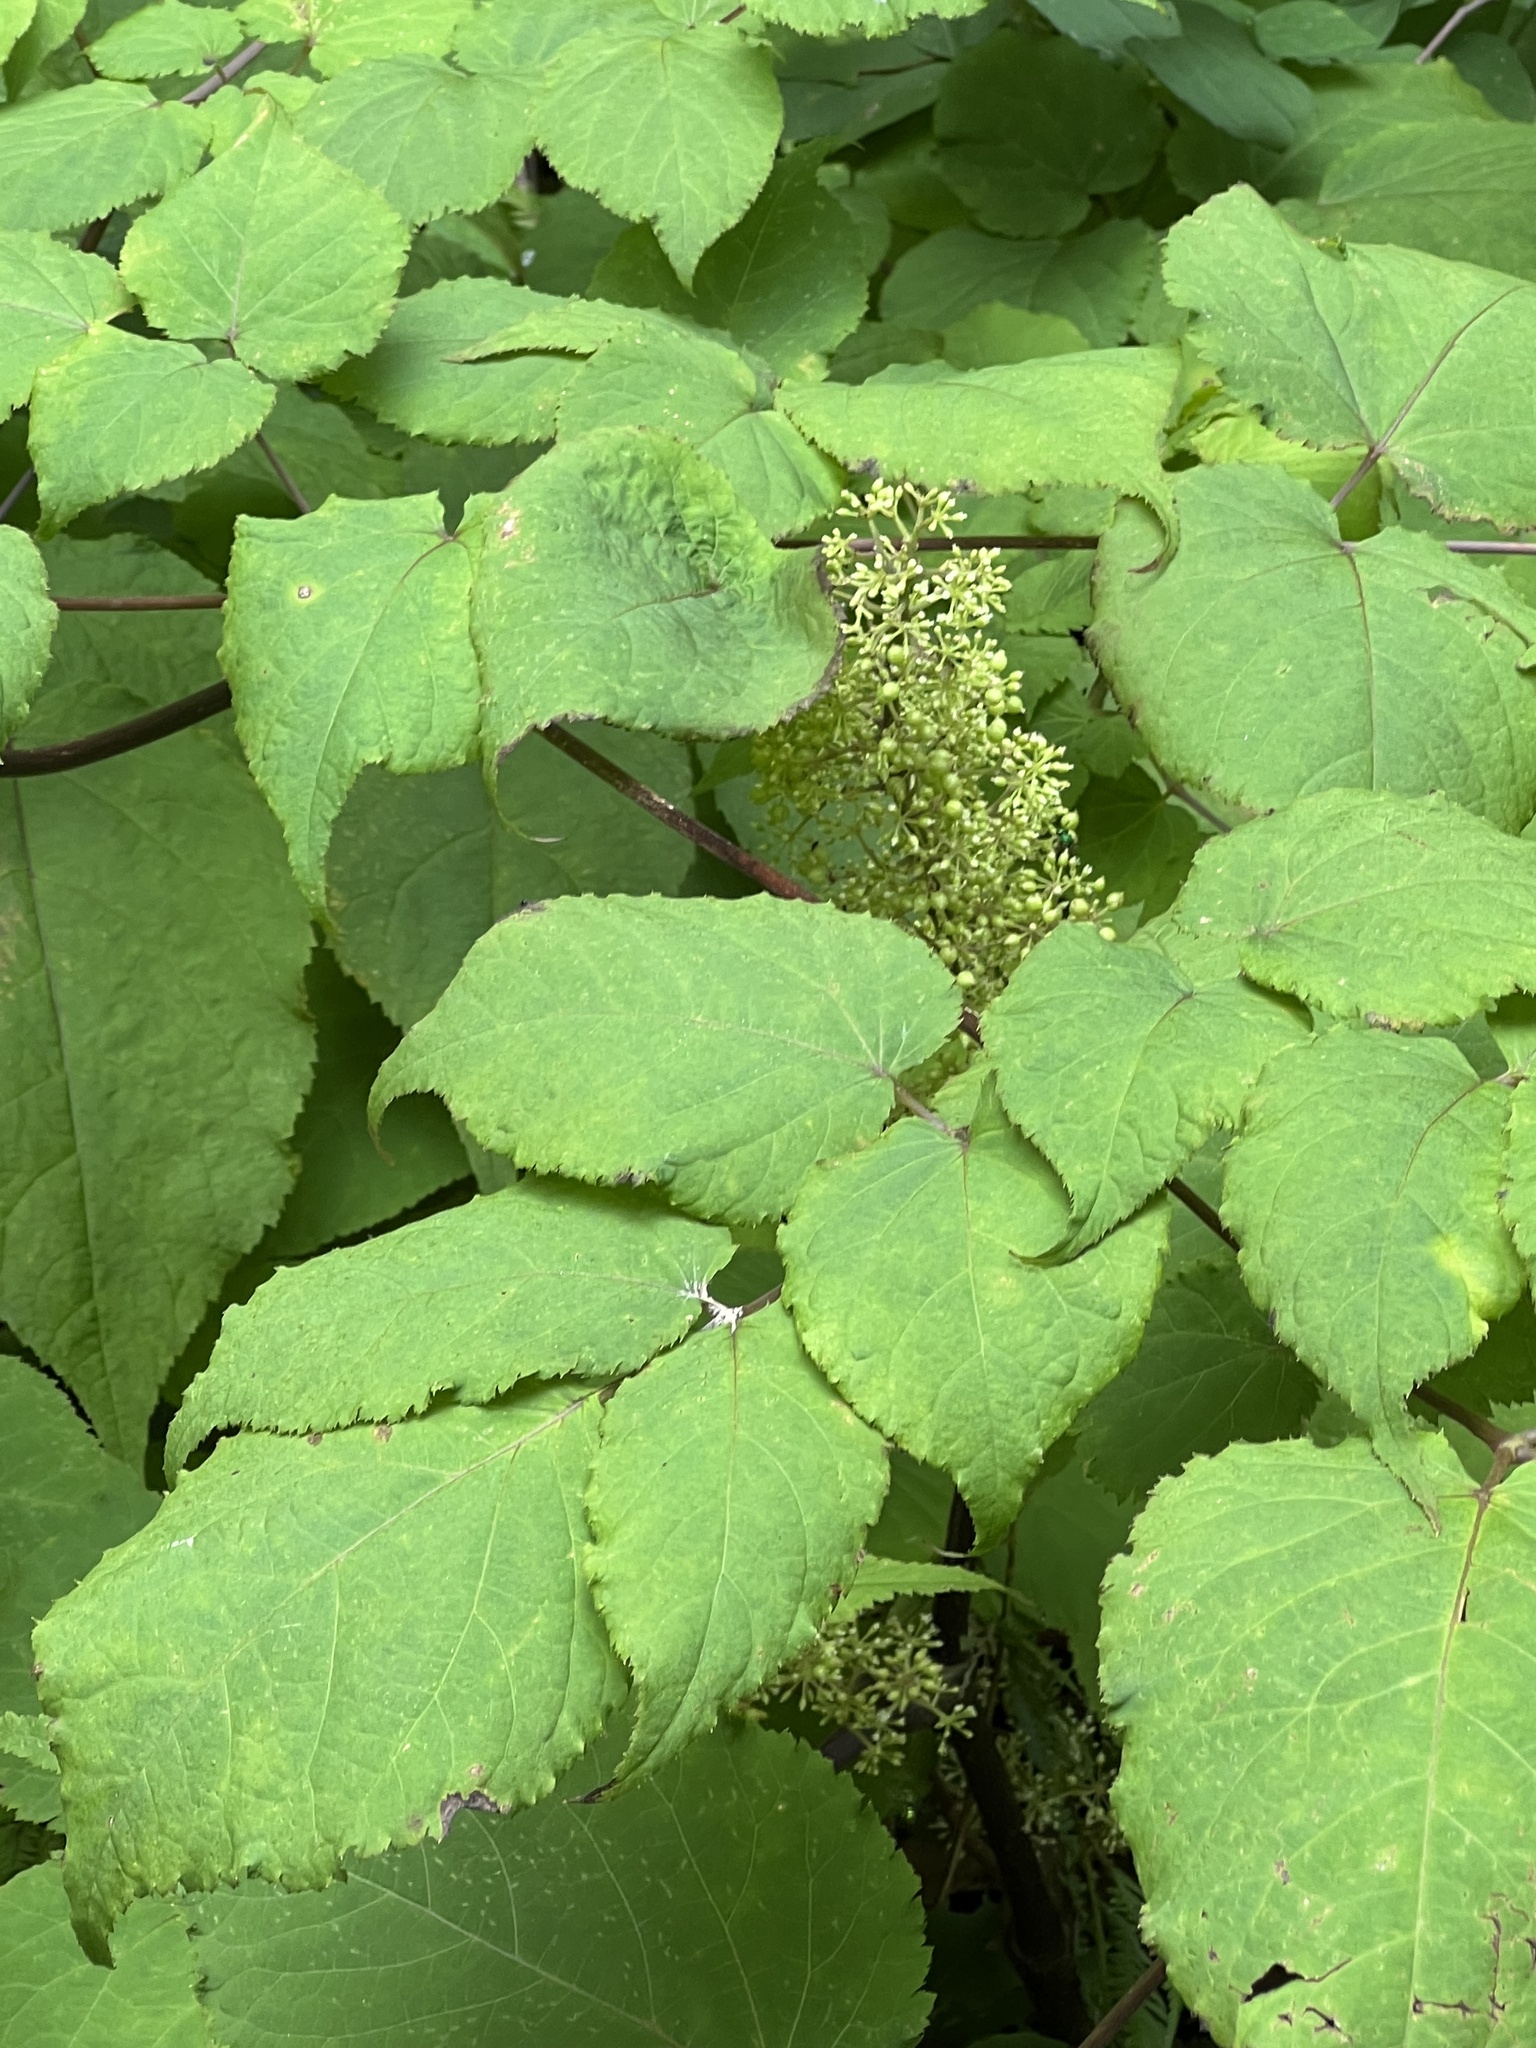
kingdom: Plantae
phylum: Tracheophyta
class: Magnoliopsida
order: Apiales
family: Araliaceae
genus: Aralia
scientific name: Aralia racemosa
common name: American-spikenard
